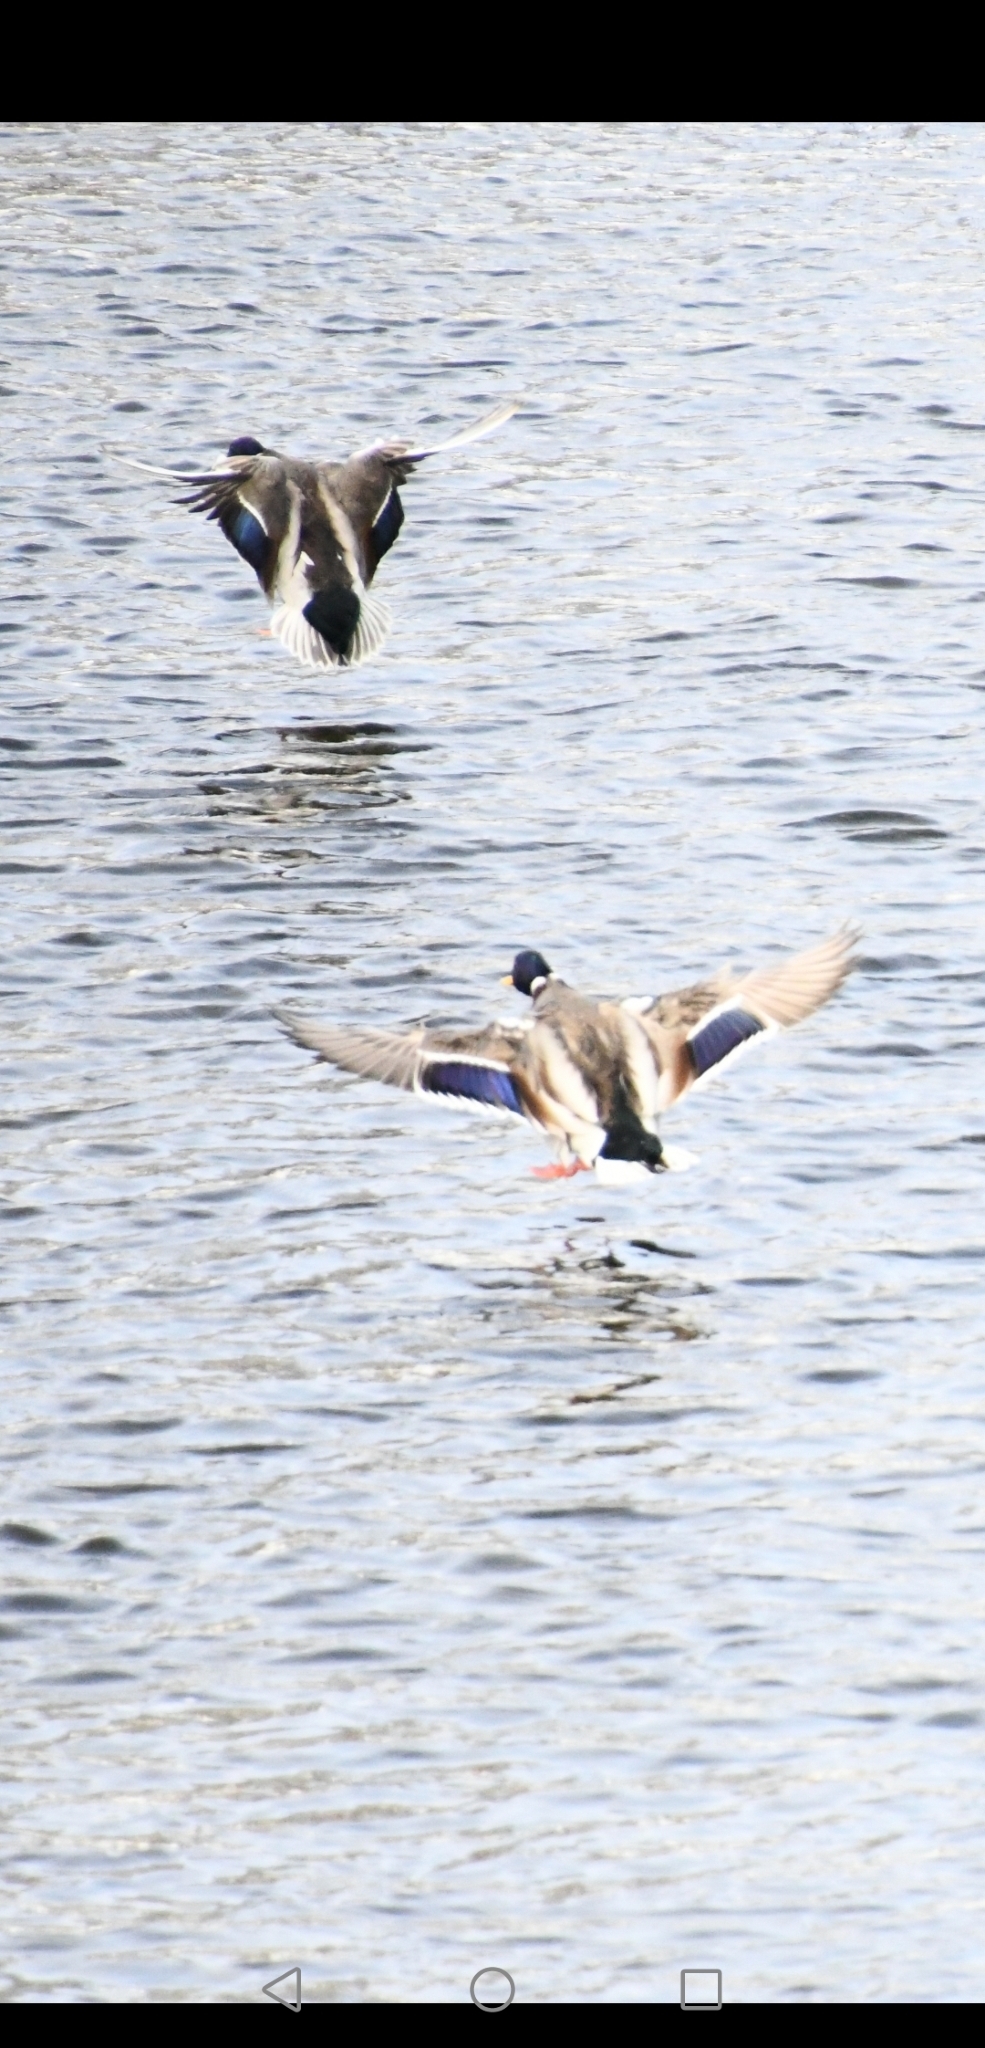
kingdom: Animalia
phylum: Chordata
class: Aves
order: Anseriformes
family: Anatidae
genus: Anas
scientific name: Anas platyrhynchos
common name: Mallard
